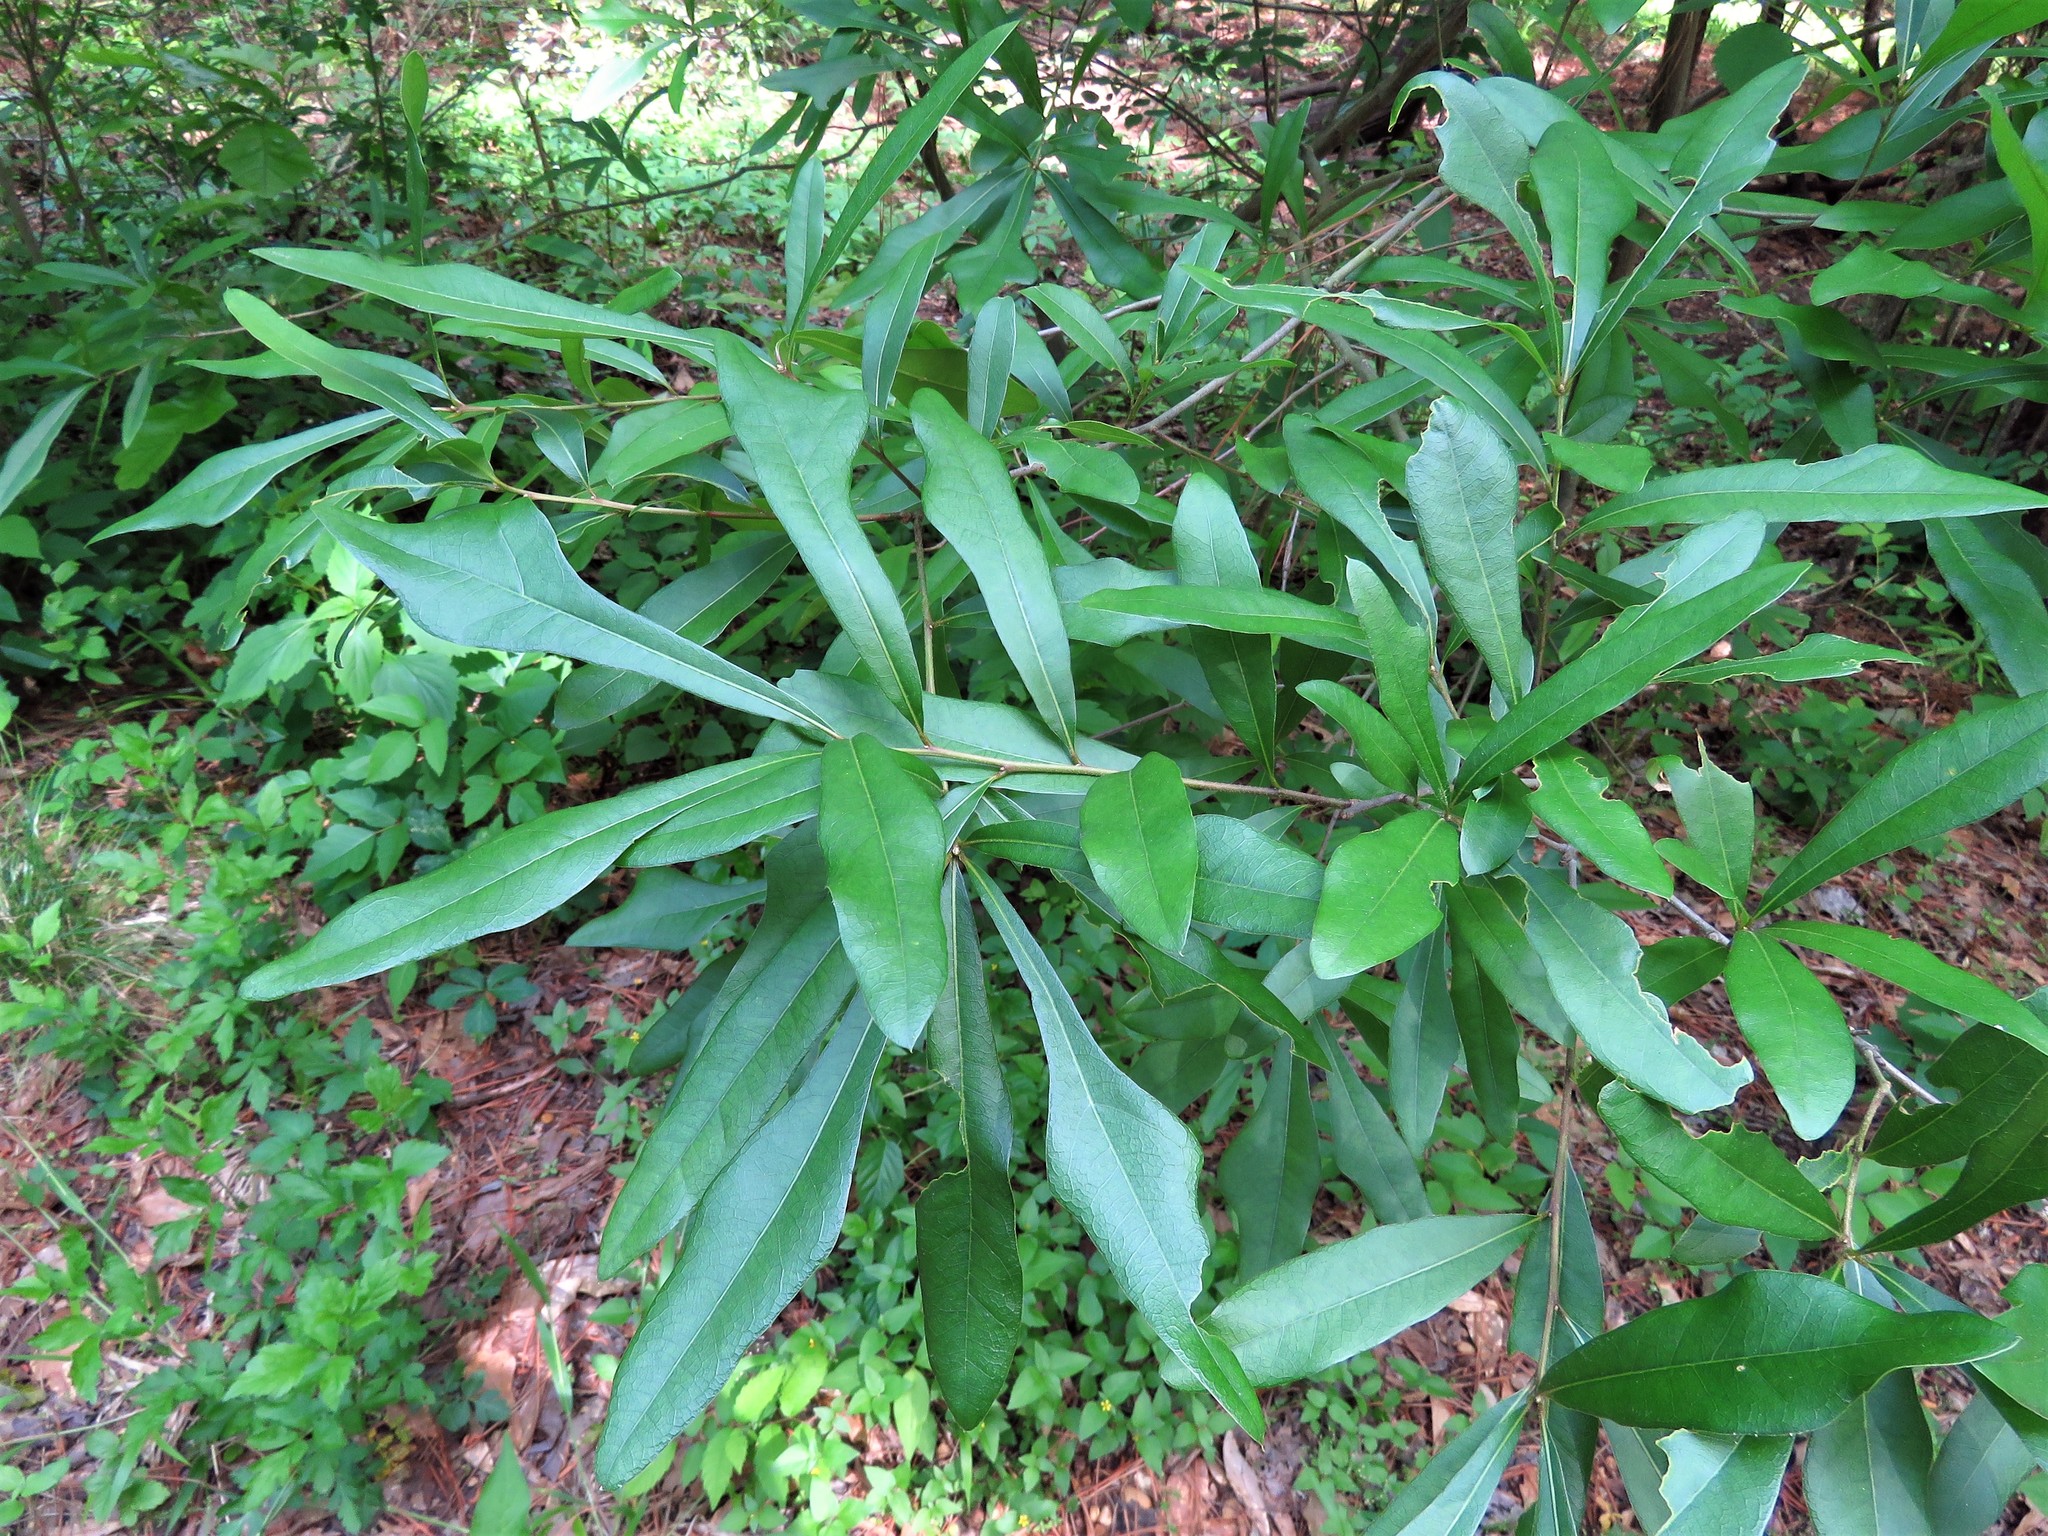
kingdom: Plantae
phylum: Tracheophyta
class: Magnoliopsida
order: Fagales
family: Fagaceae
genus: Quercus
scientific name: Quercus nigra
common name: Water oak
